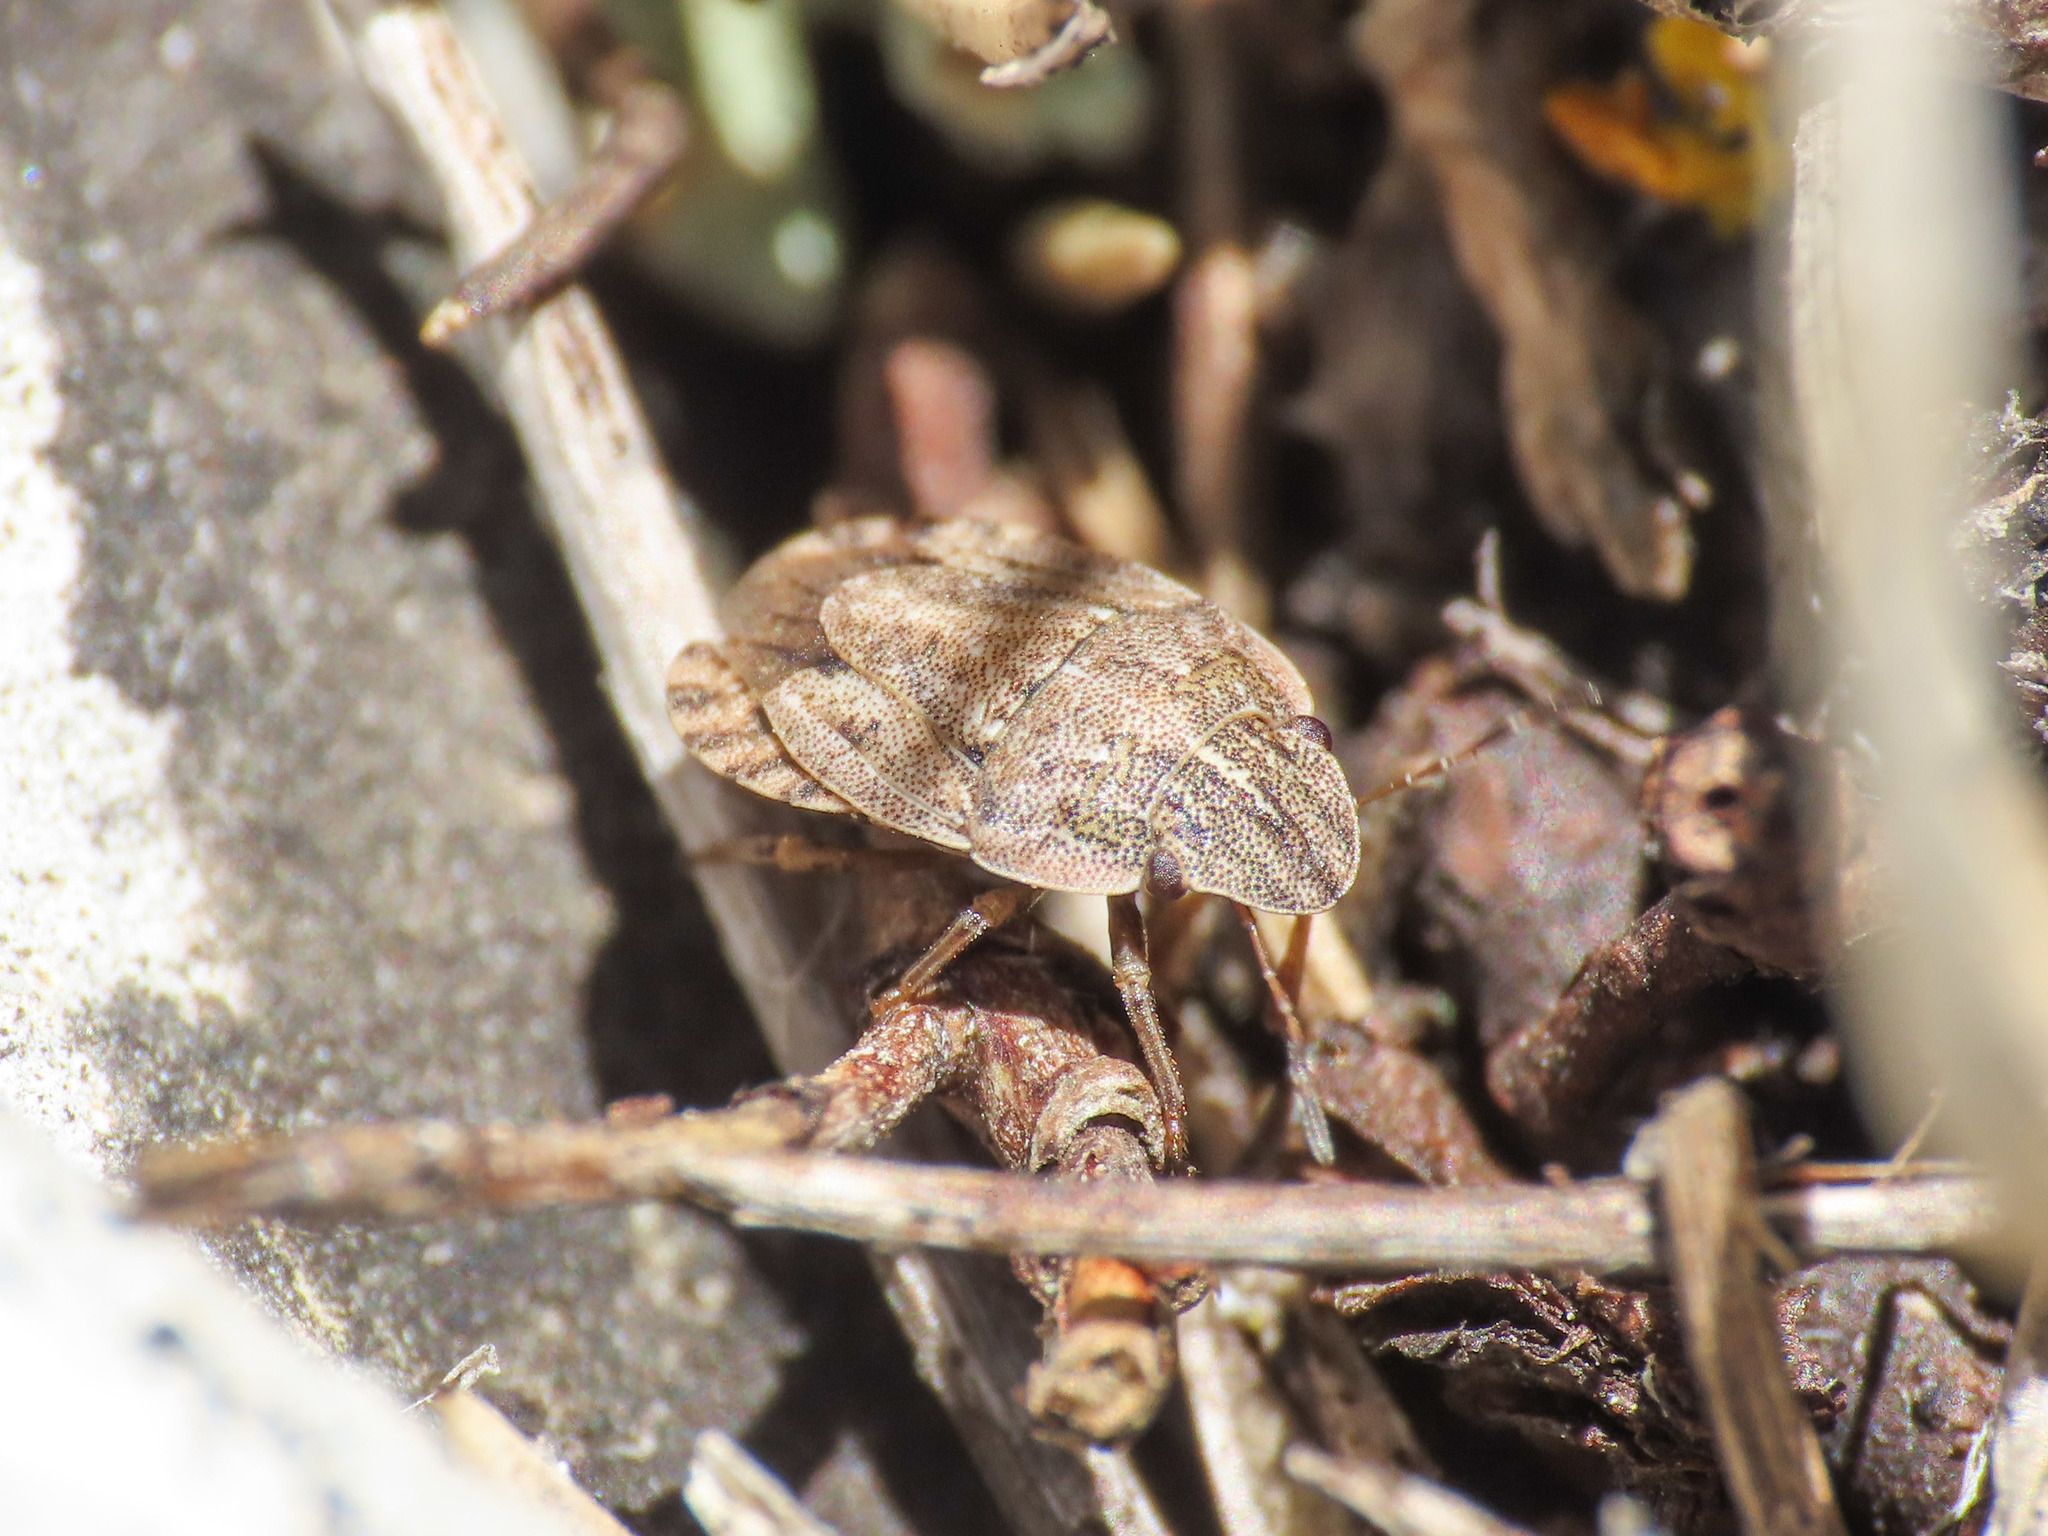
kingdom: Animalia
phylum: Arthropoda
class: Insecta
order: Hemiptera
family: Pentatomidae
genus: Sciocoris
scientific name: Sciocoris cursitans
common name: Sandrunner
